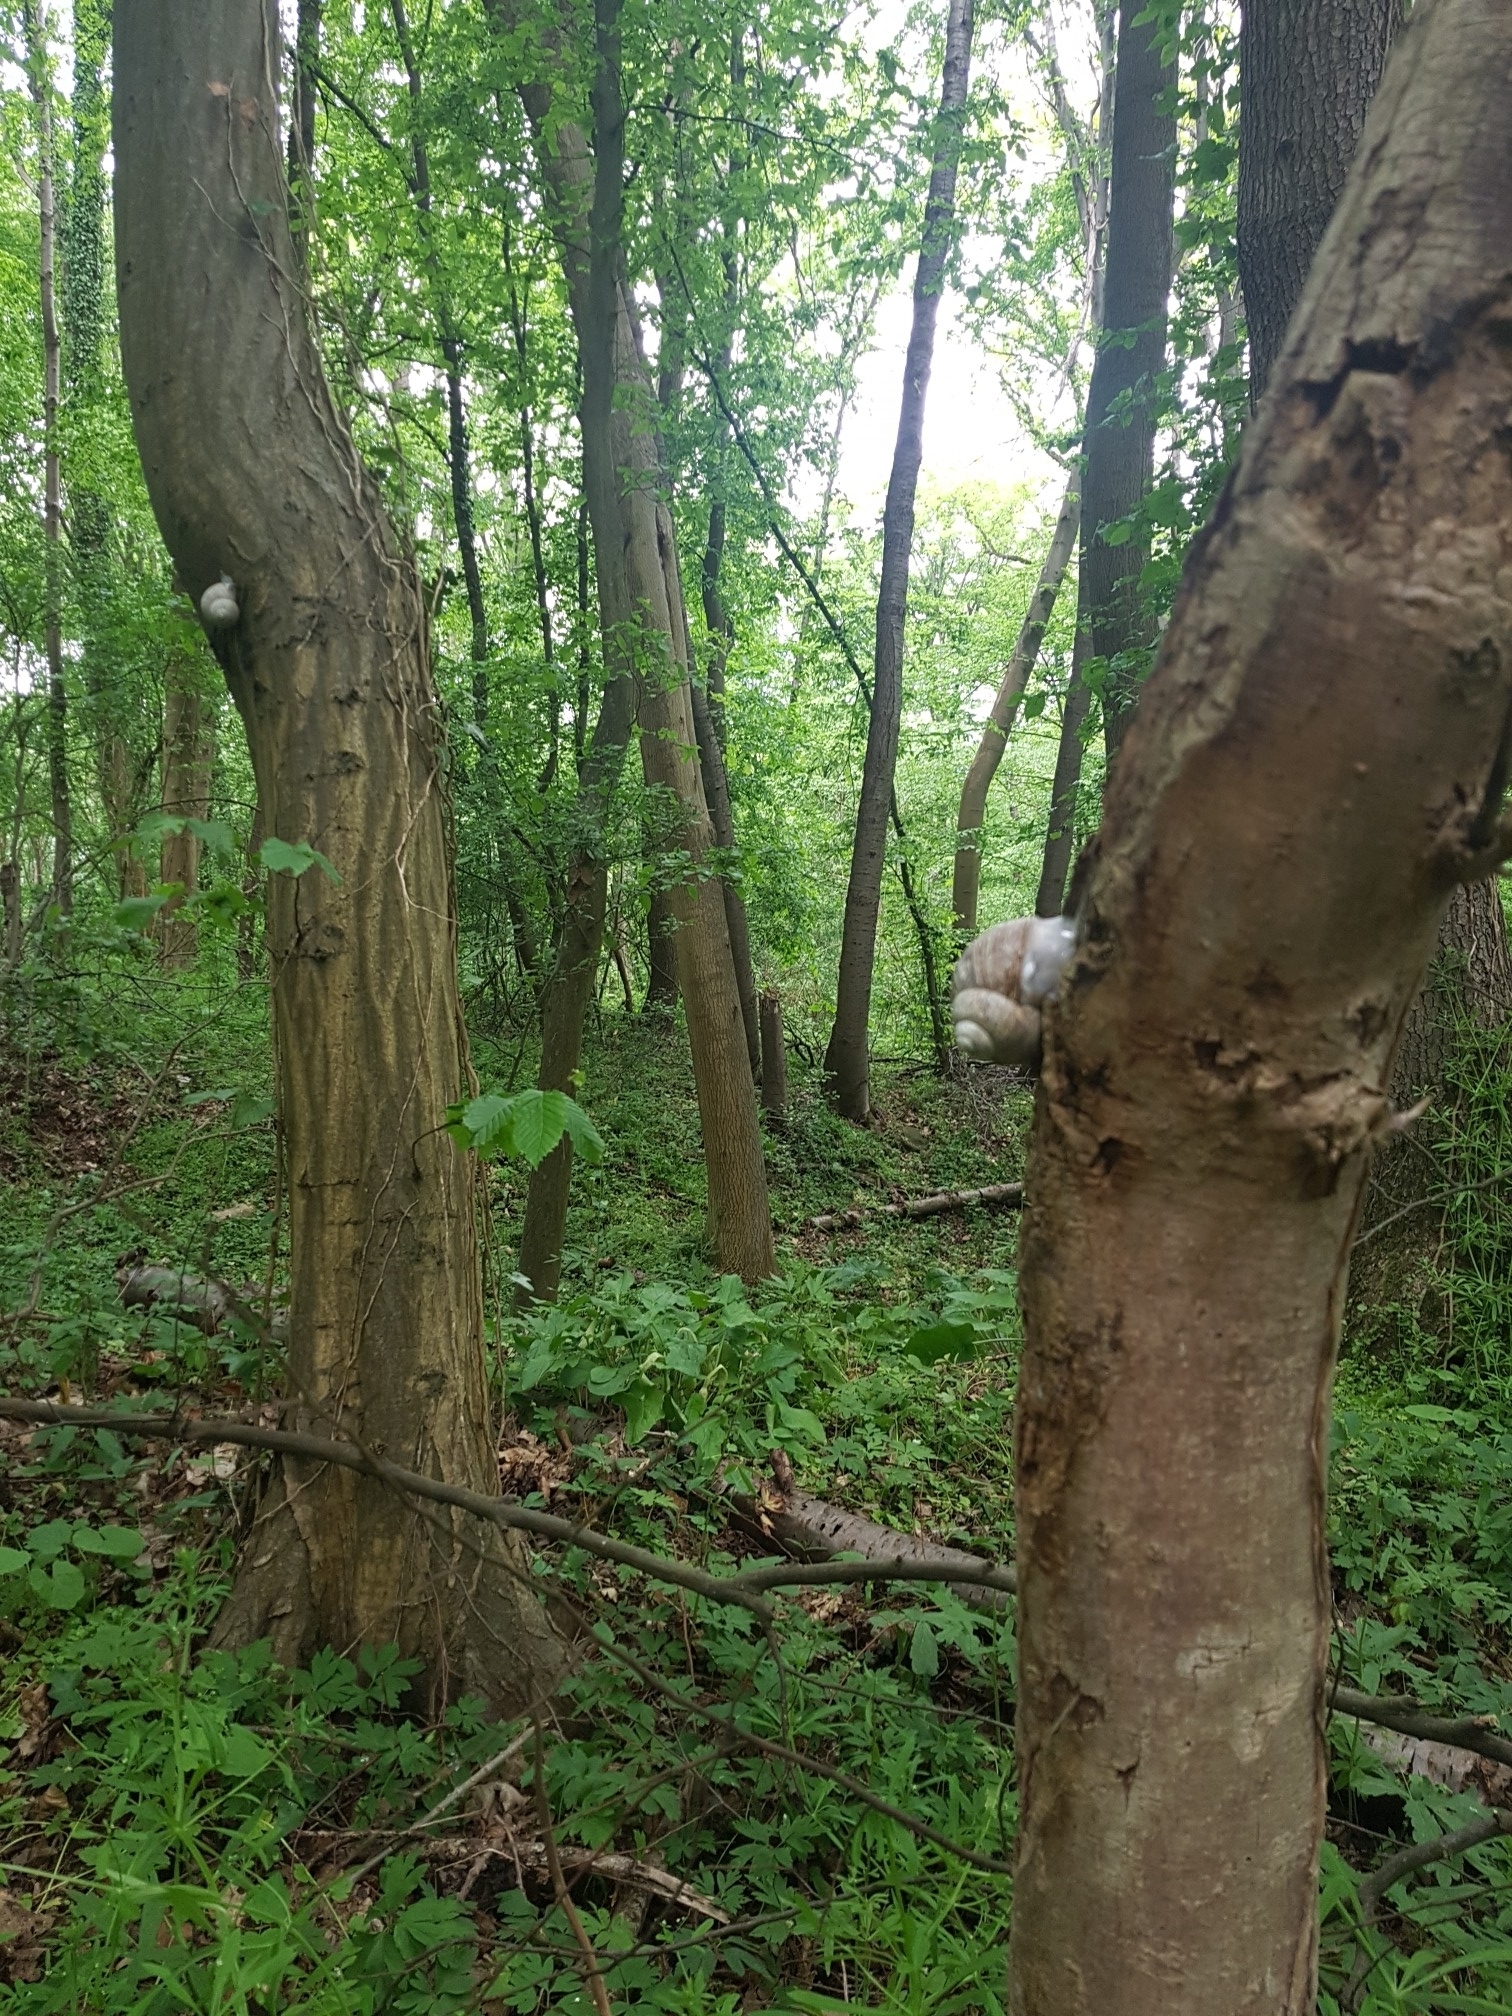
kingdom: Animalia
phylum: Mollusca
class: Gastropoda
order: Stylommatophora
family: Helicidae
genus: Helix
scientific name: Helix pomatia
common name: Roman snail
